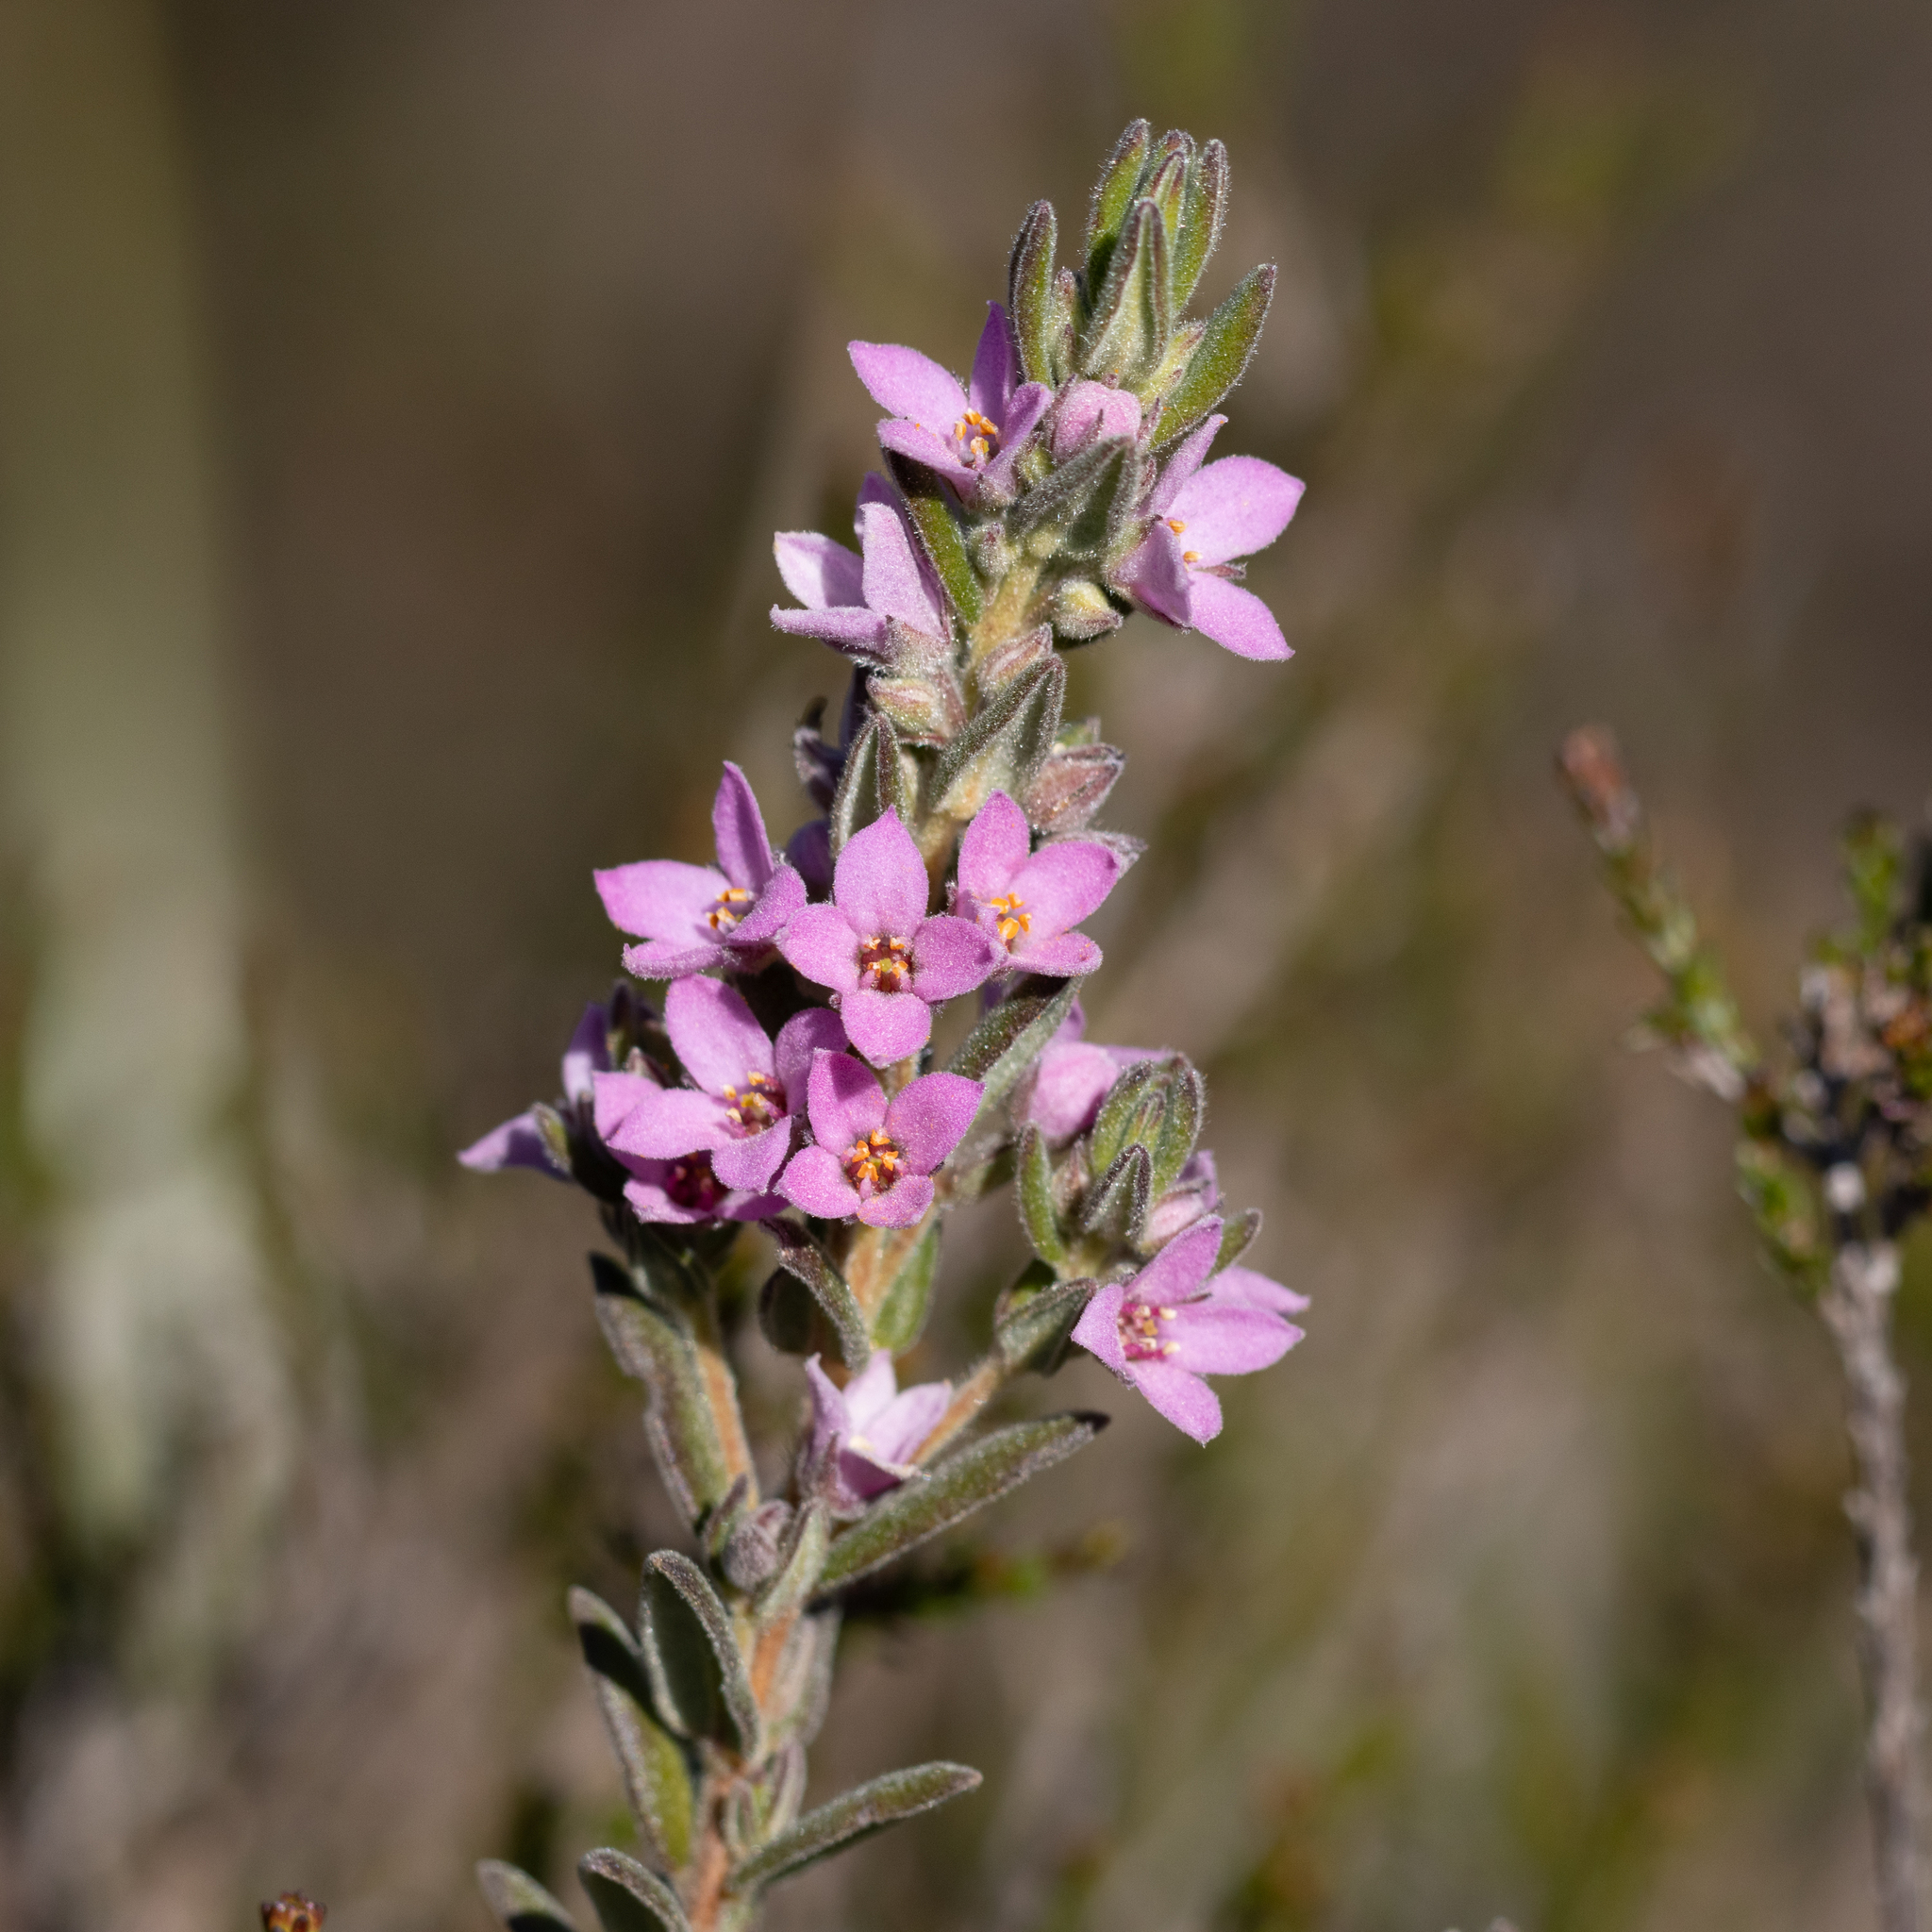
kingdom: Plantae
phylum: Tracheophyta
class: Magnoliopsida
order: Sapindales
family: Rutaceae
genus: Zieria
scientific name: Zieria veronicea
